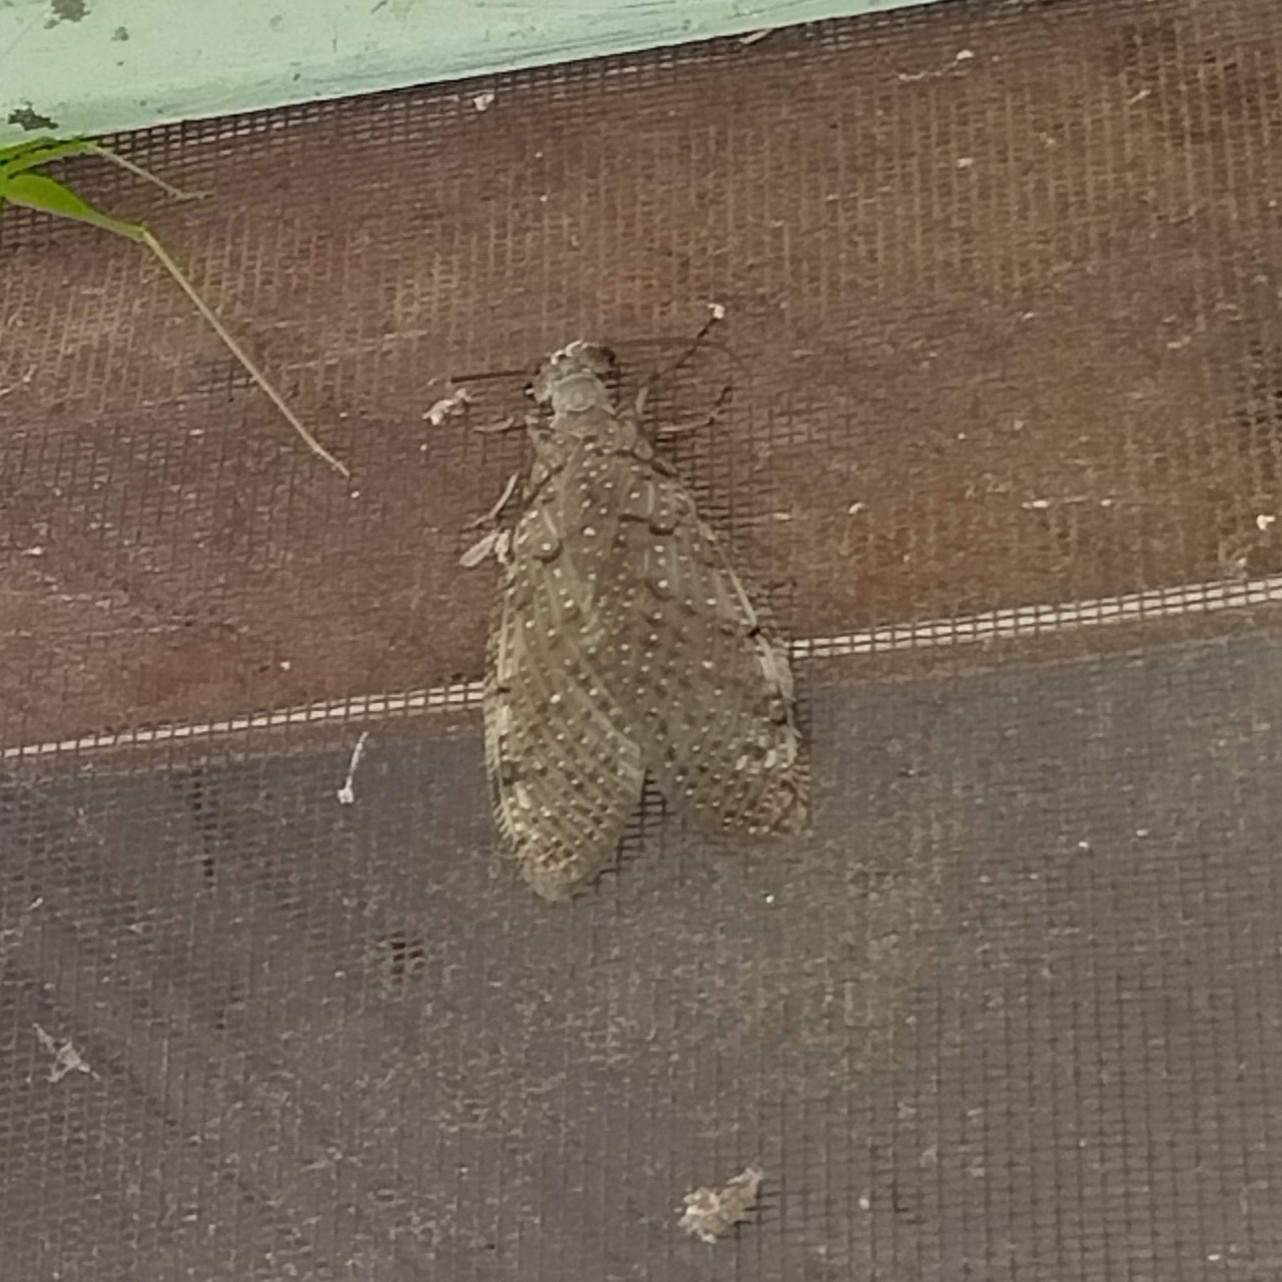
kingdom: Animalia
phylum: Arthropoda
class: Insecta
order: Megaloptera
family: Corydalidae
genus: Corydalus
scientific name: Corydalus cornutus
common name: Dobsonfly
